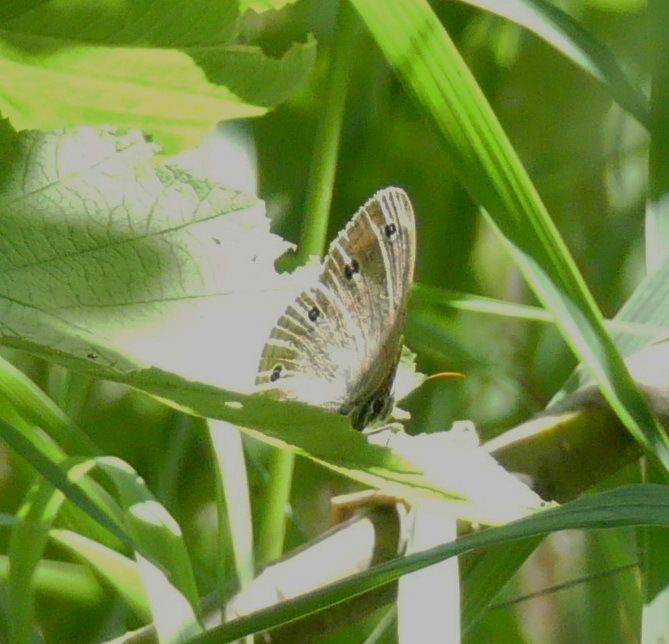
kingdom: Animalia
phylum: Arthropoda
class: Insecta
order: Lepidoptera
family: Nymphalidae
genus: Euptychia
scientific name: Euptychia cymela
